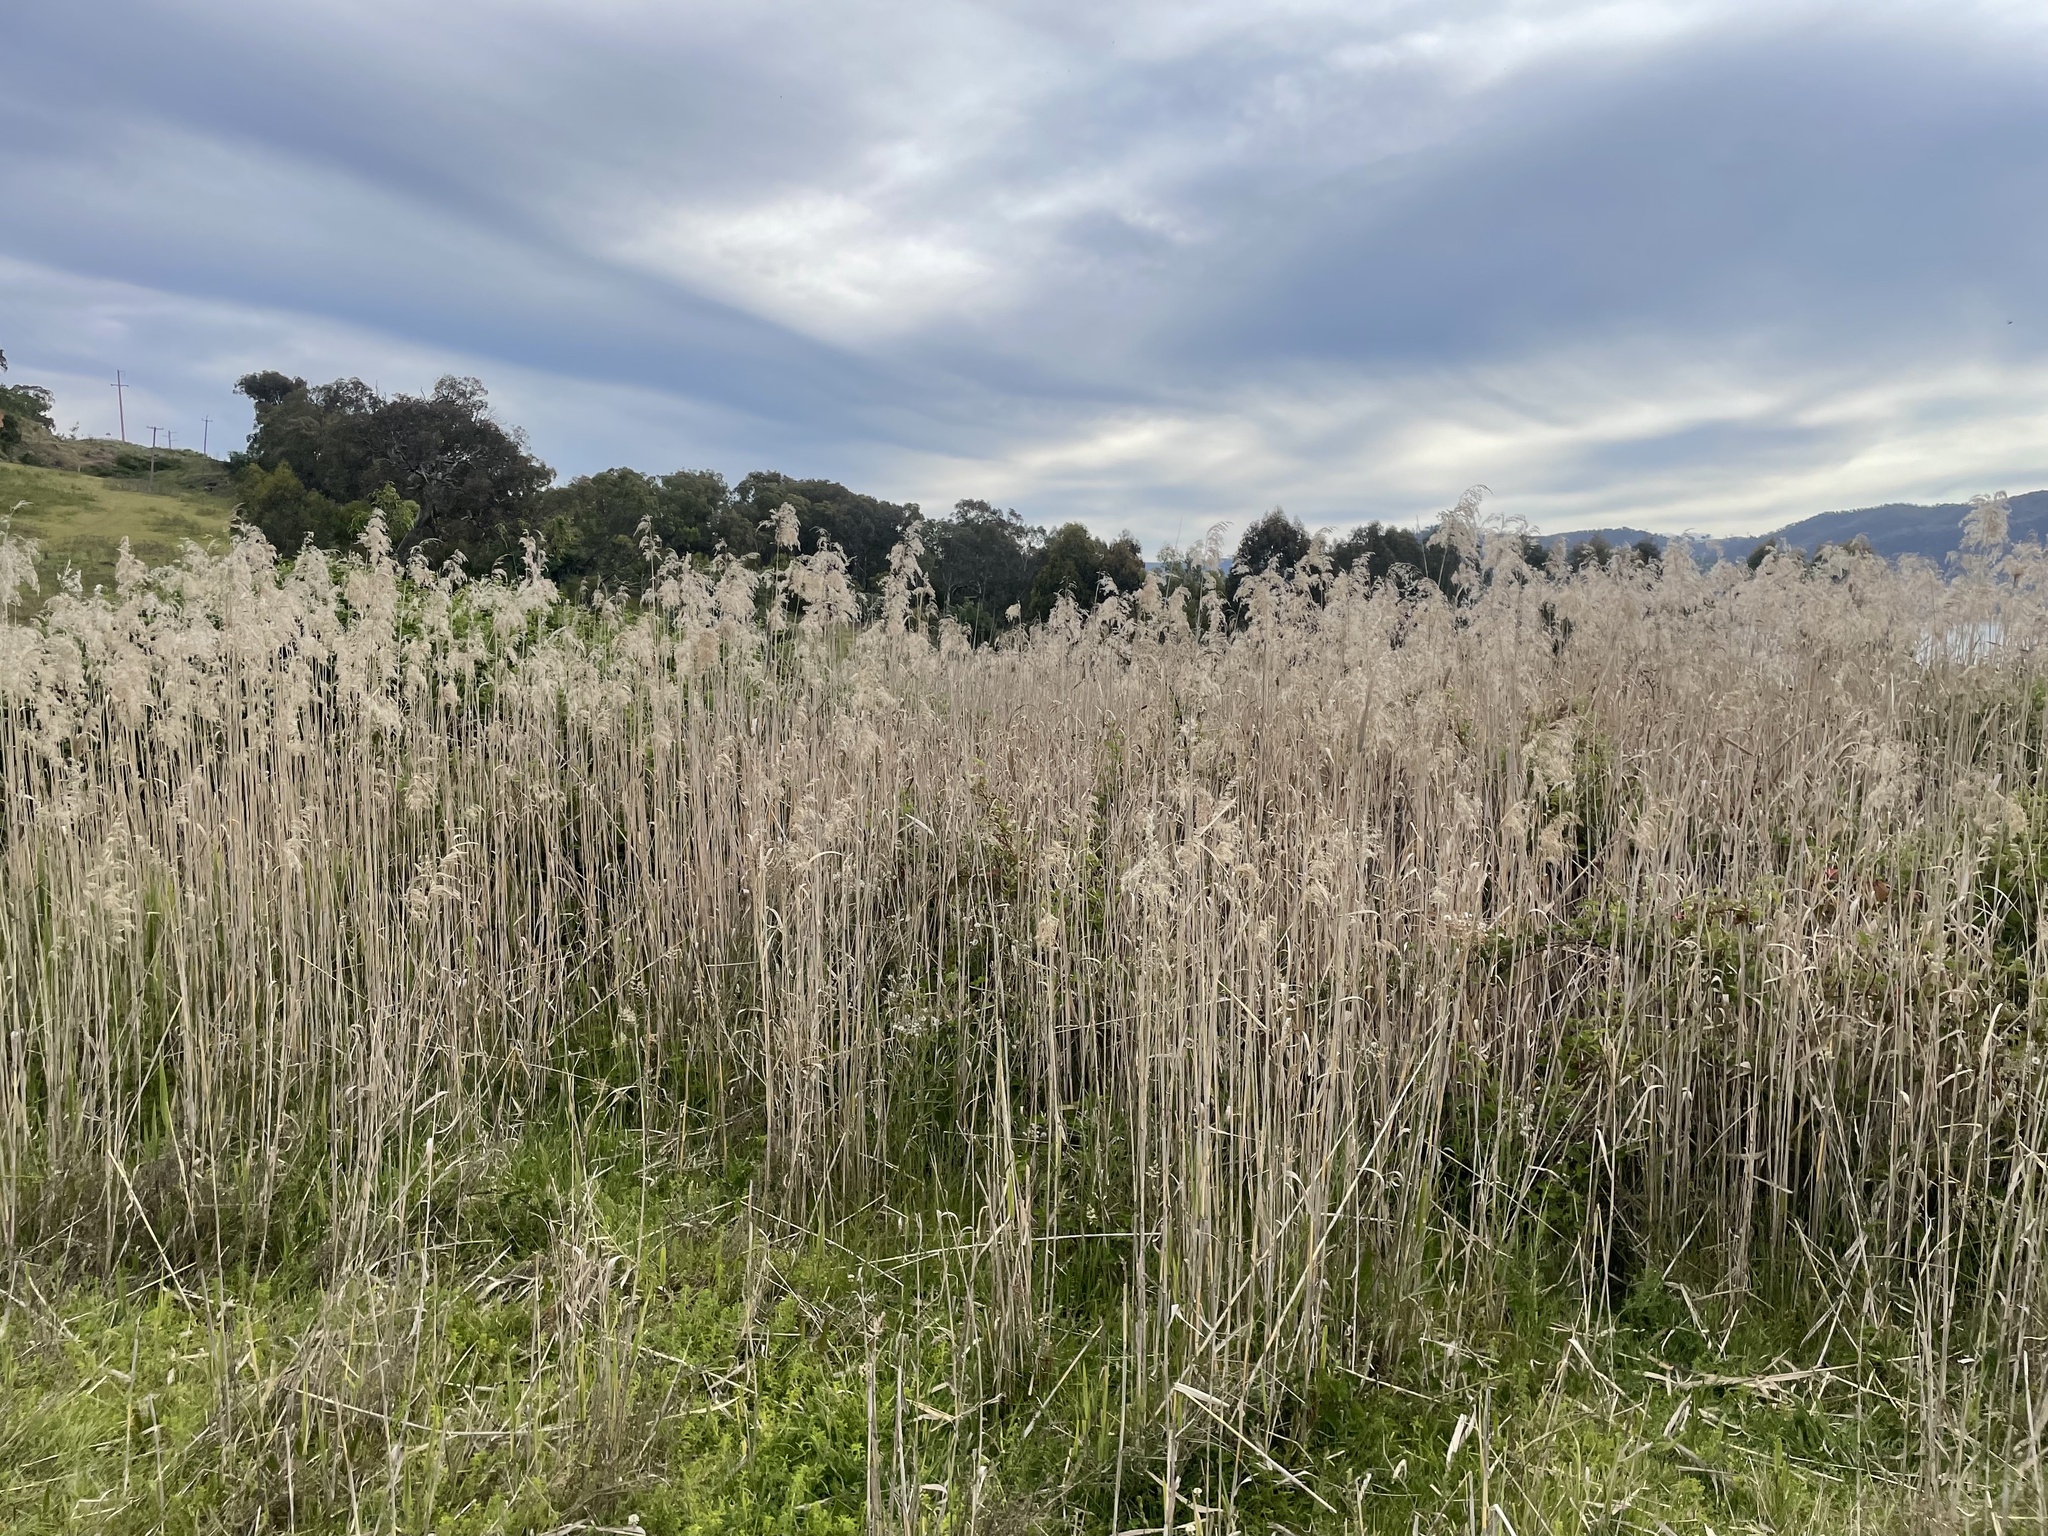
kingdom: Plantae
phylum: Tracheophyta
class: Liliopsida
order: Poales
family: Poaceae
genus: Phragmites
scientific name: Phragmites australis
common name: Common reed
